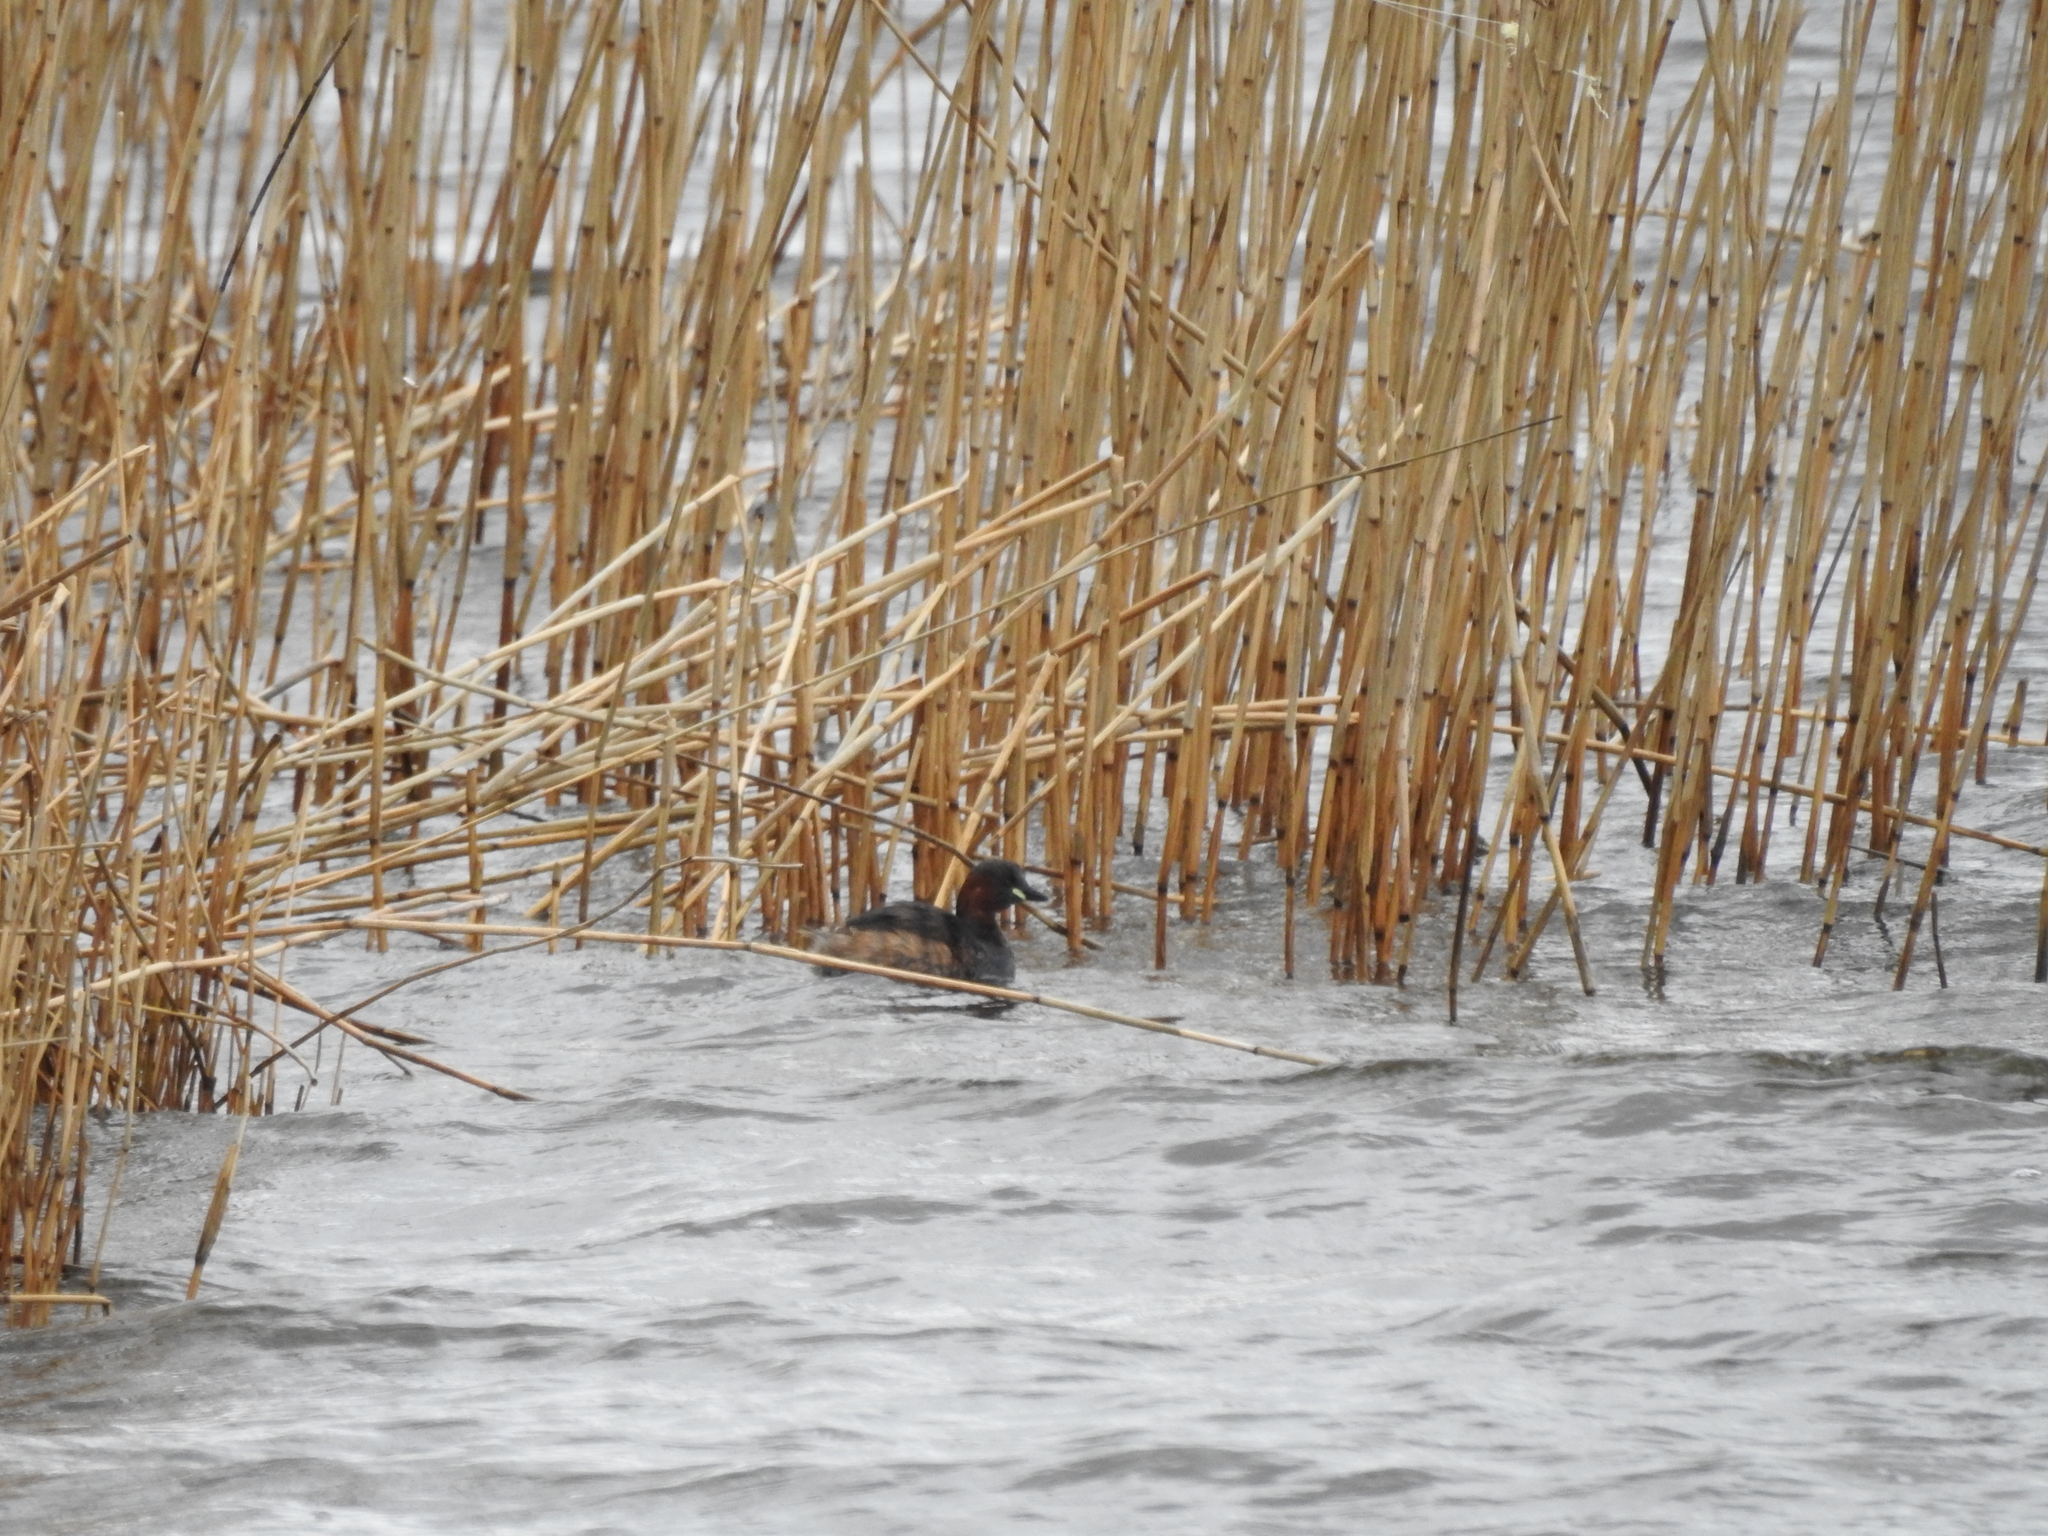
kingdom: Animalia
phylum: Chordata
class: Aves
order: Podicipediformes
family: Podicipedidae
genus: Tachybaptus
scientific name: Tachybaptus ruficollis
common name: Little grebe
